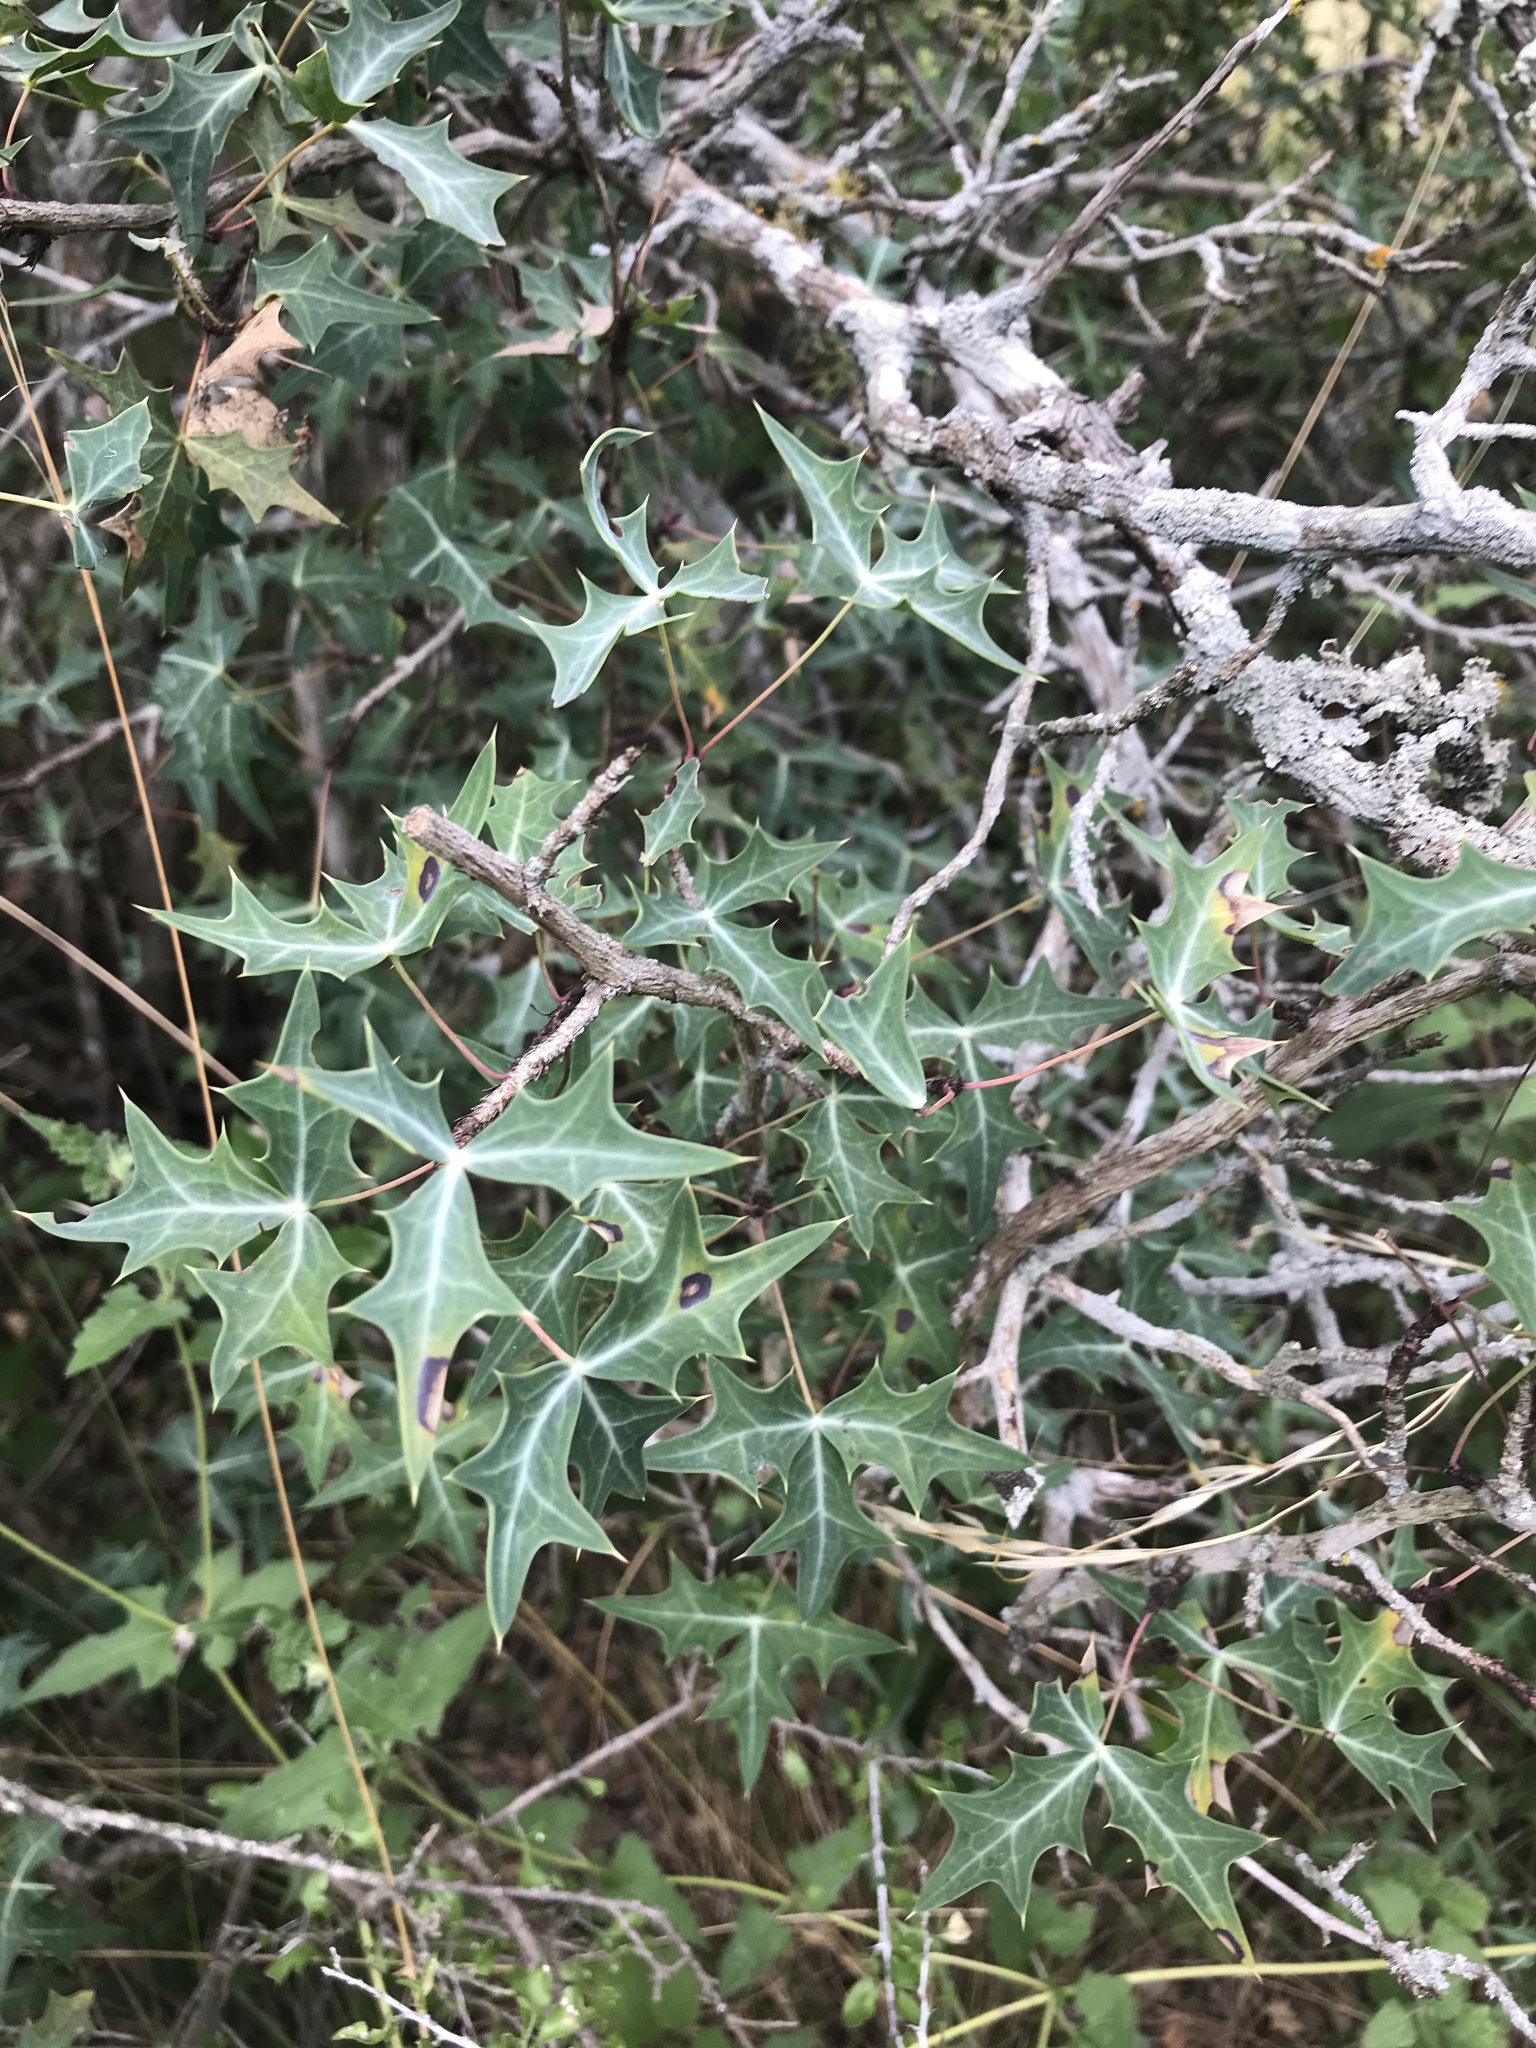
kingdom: Plantae
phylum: Tracheophyta
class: Magnoliopsida
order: Ranunculales
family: Berberidaceae
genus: Alloberberis
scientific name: Alloberberis trifoliolata
